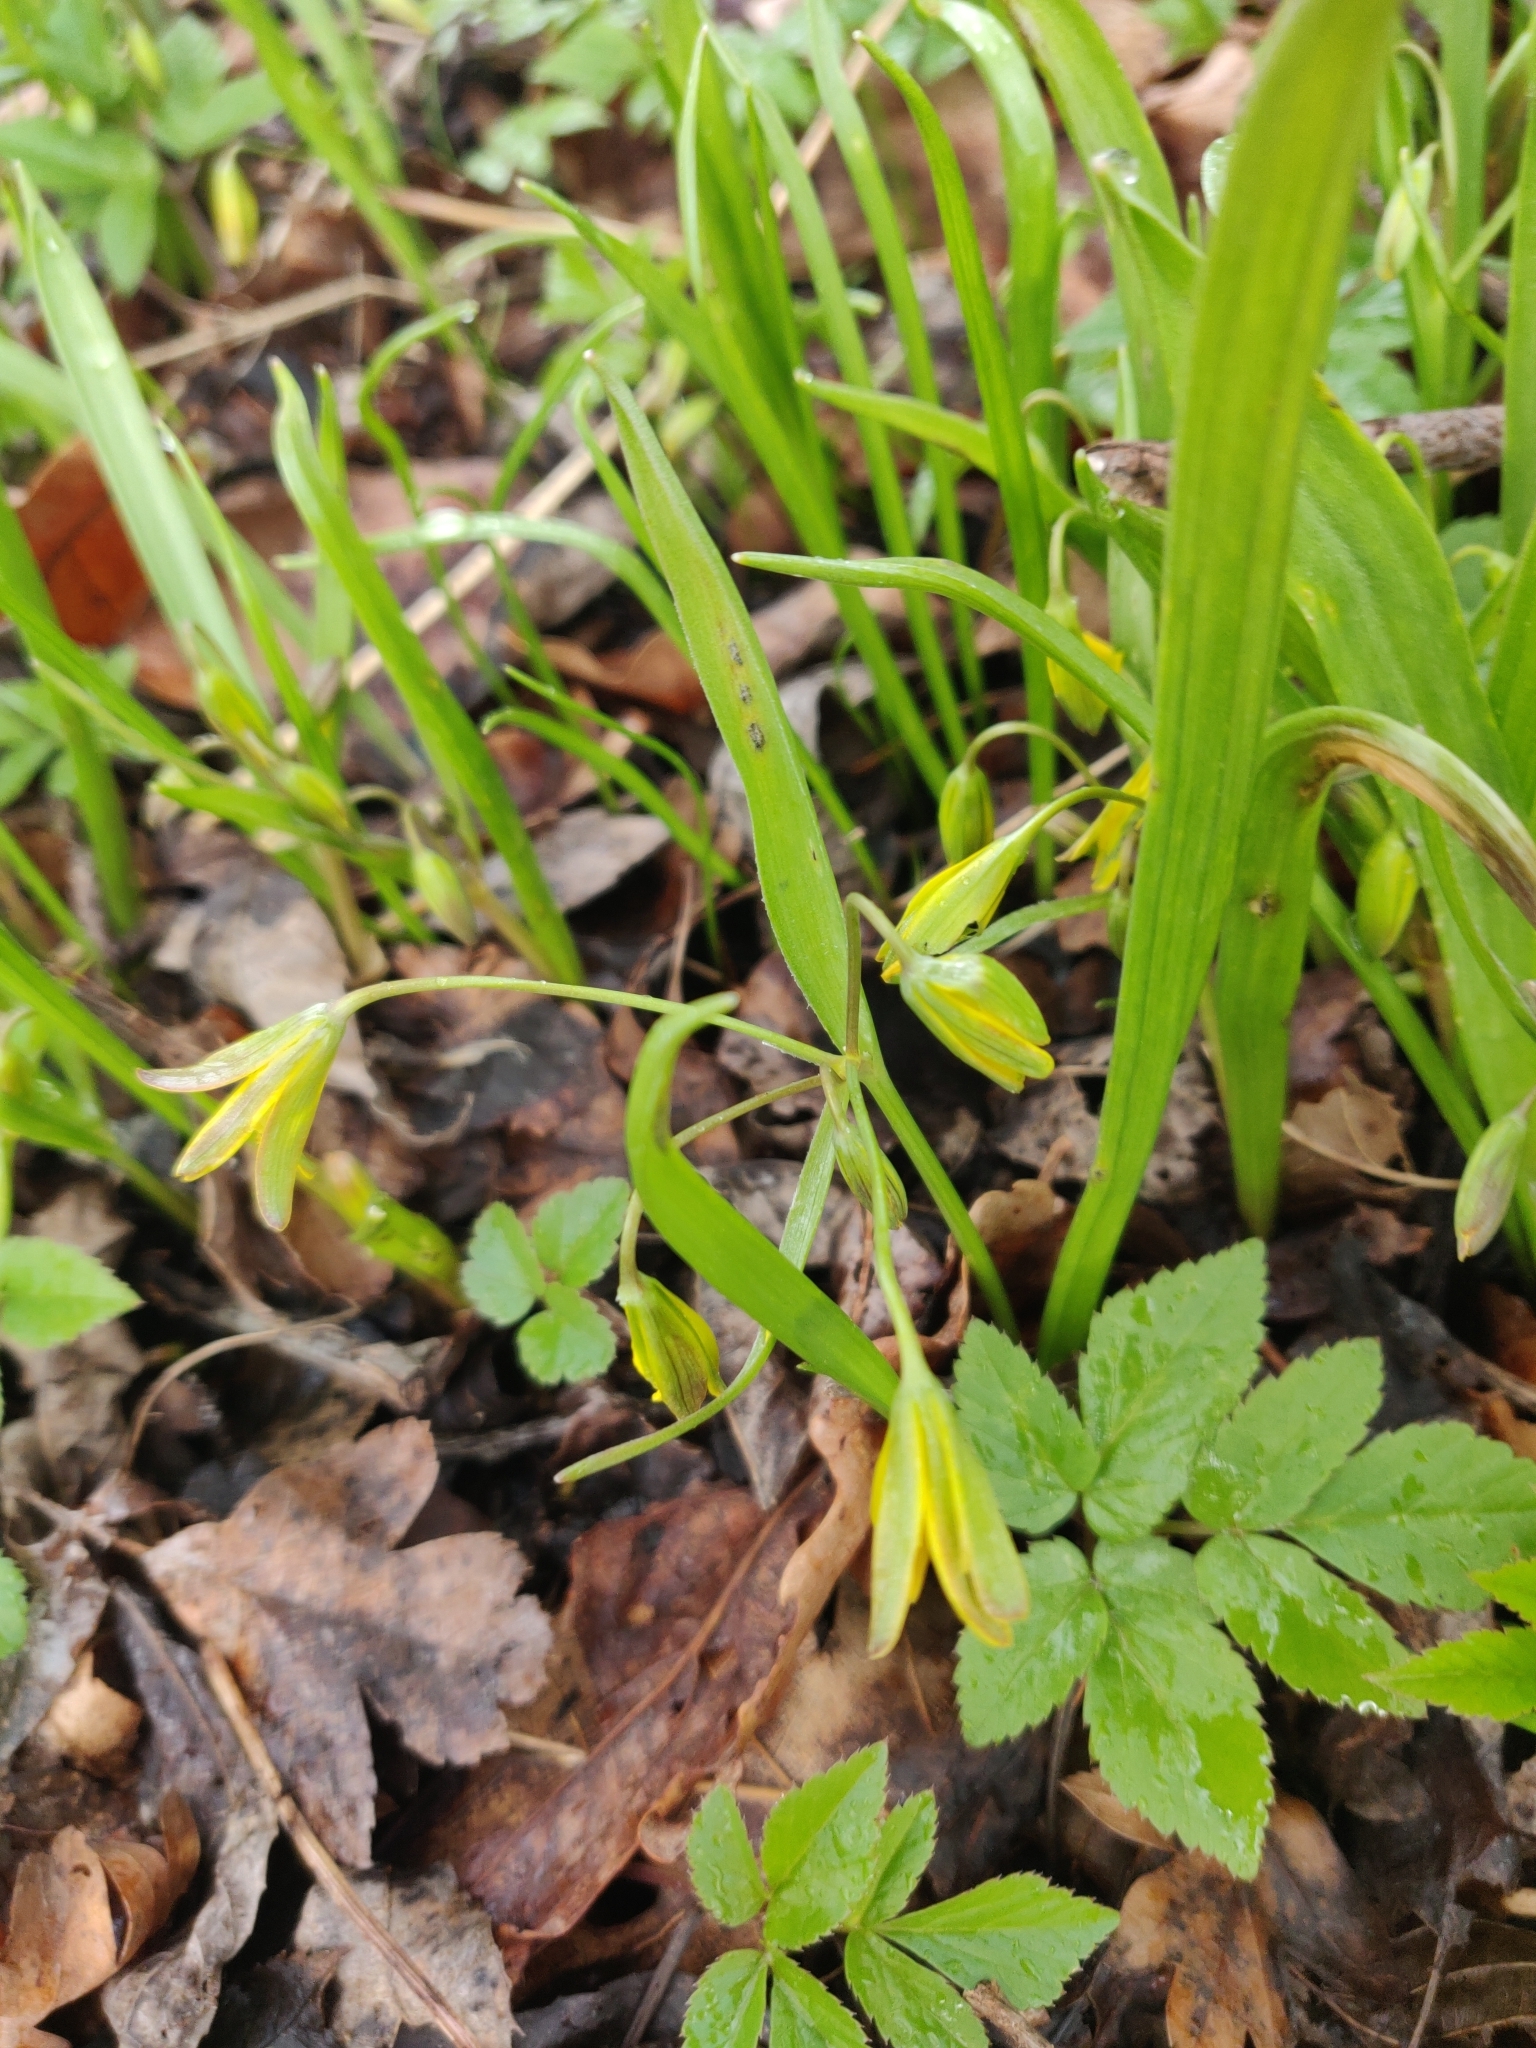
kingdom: Plantae
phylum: Tracheophyta
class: Liliopsida
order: Liliales
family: Liliaceae
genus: Gagea
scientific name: Gagea lutea
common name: Yellow star-of-bethlehem
